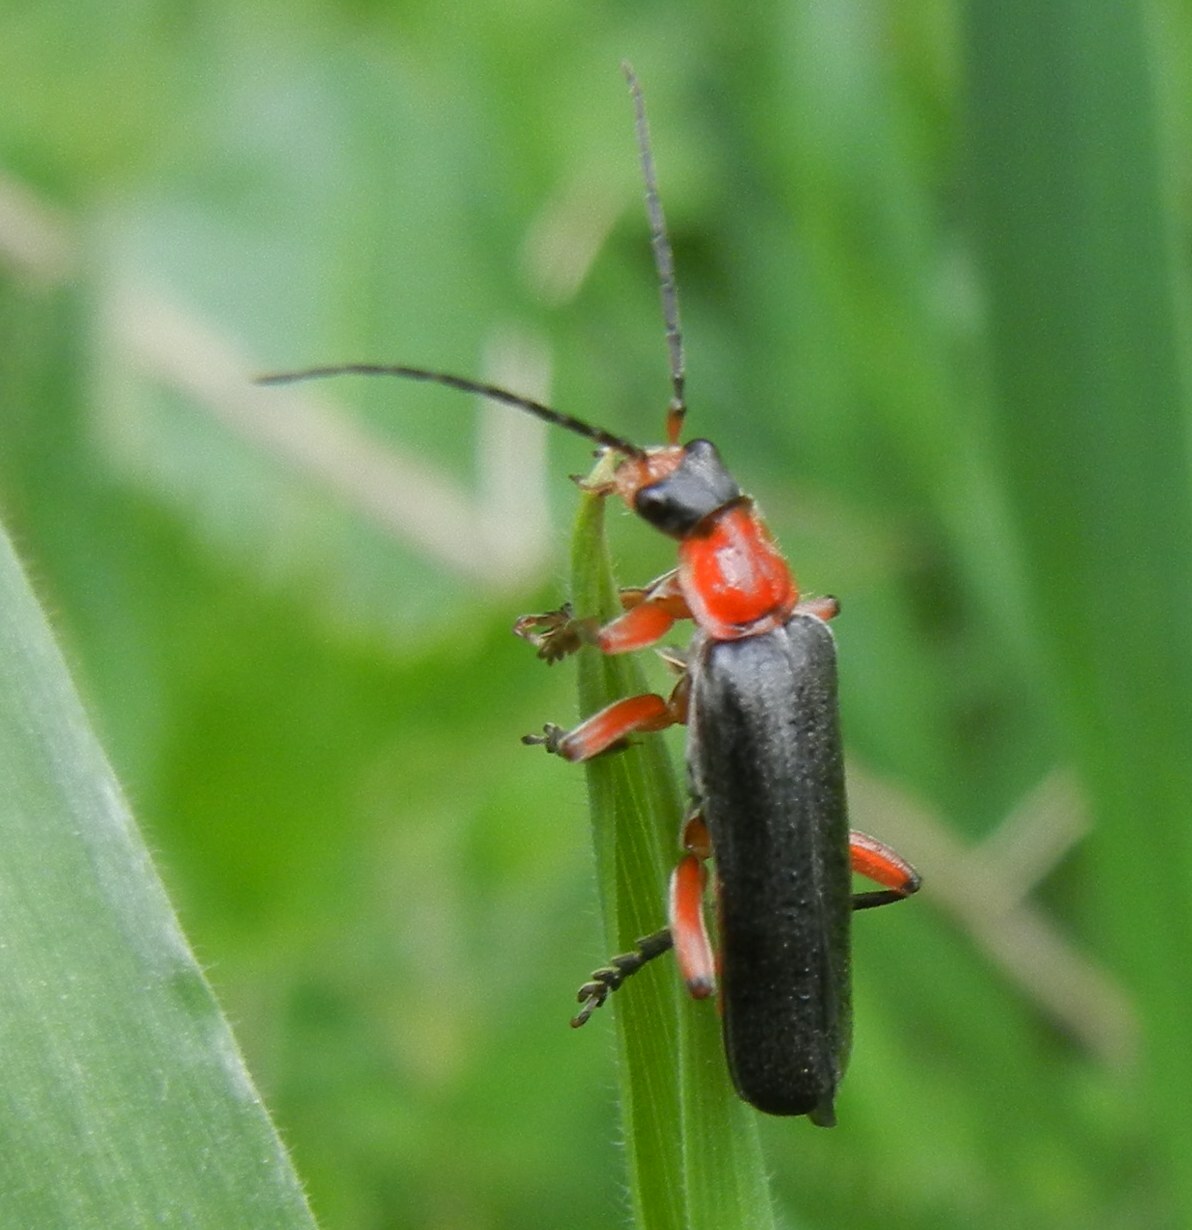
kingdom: Animalia
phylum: Arthropoda
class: Insecta
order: Coleoptera
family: Cantharidae
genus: Cantharis
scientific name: Cantharis pellucida
